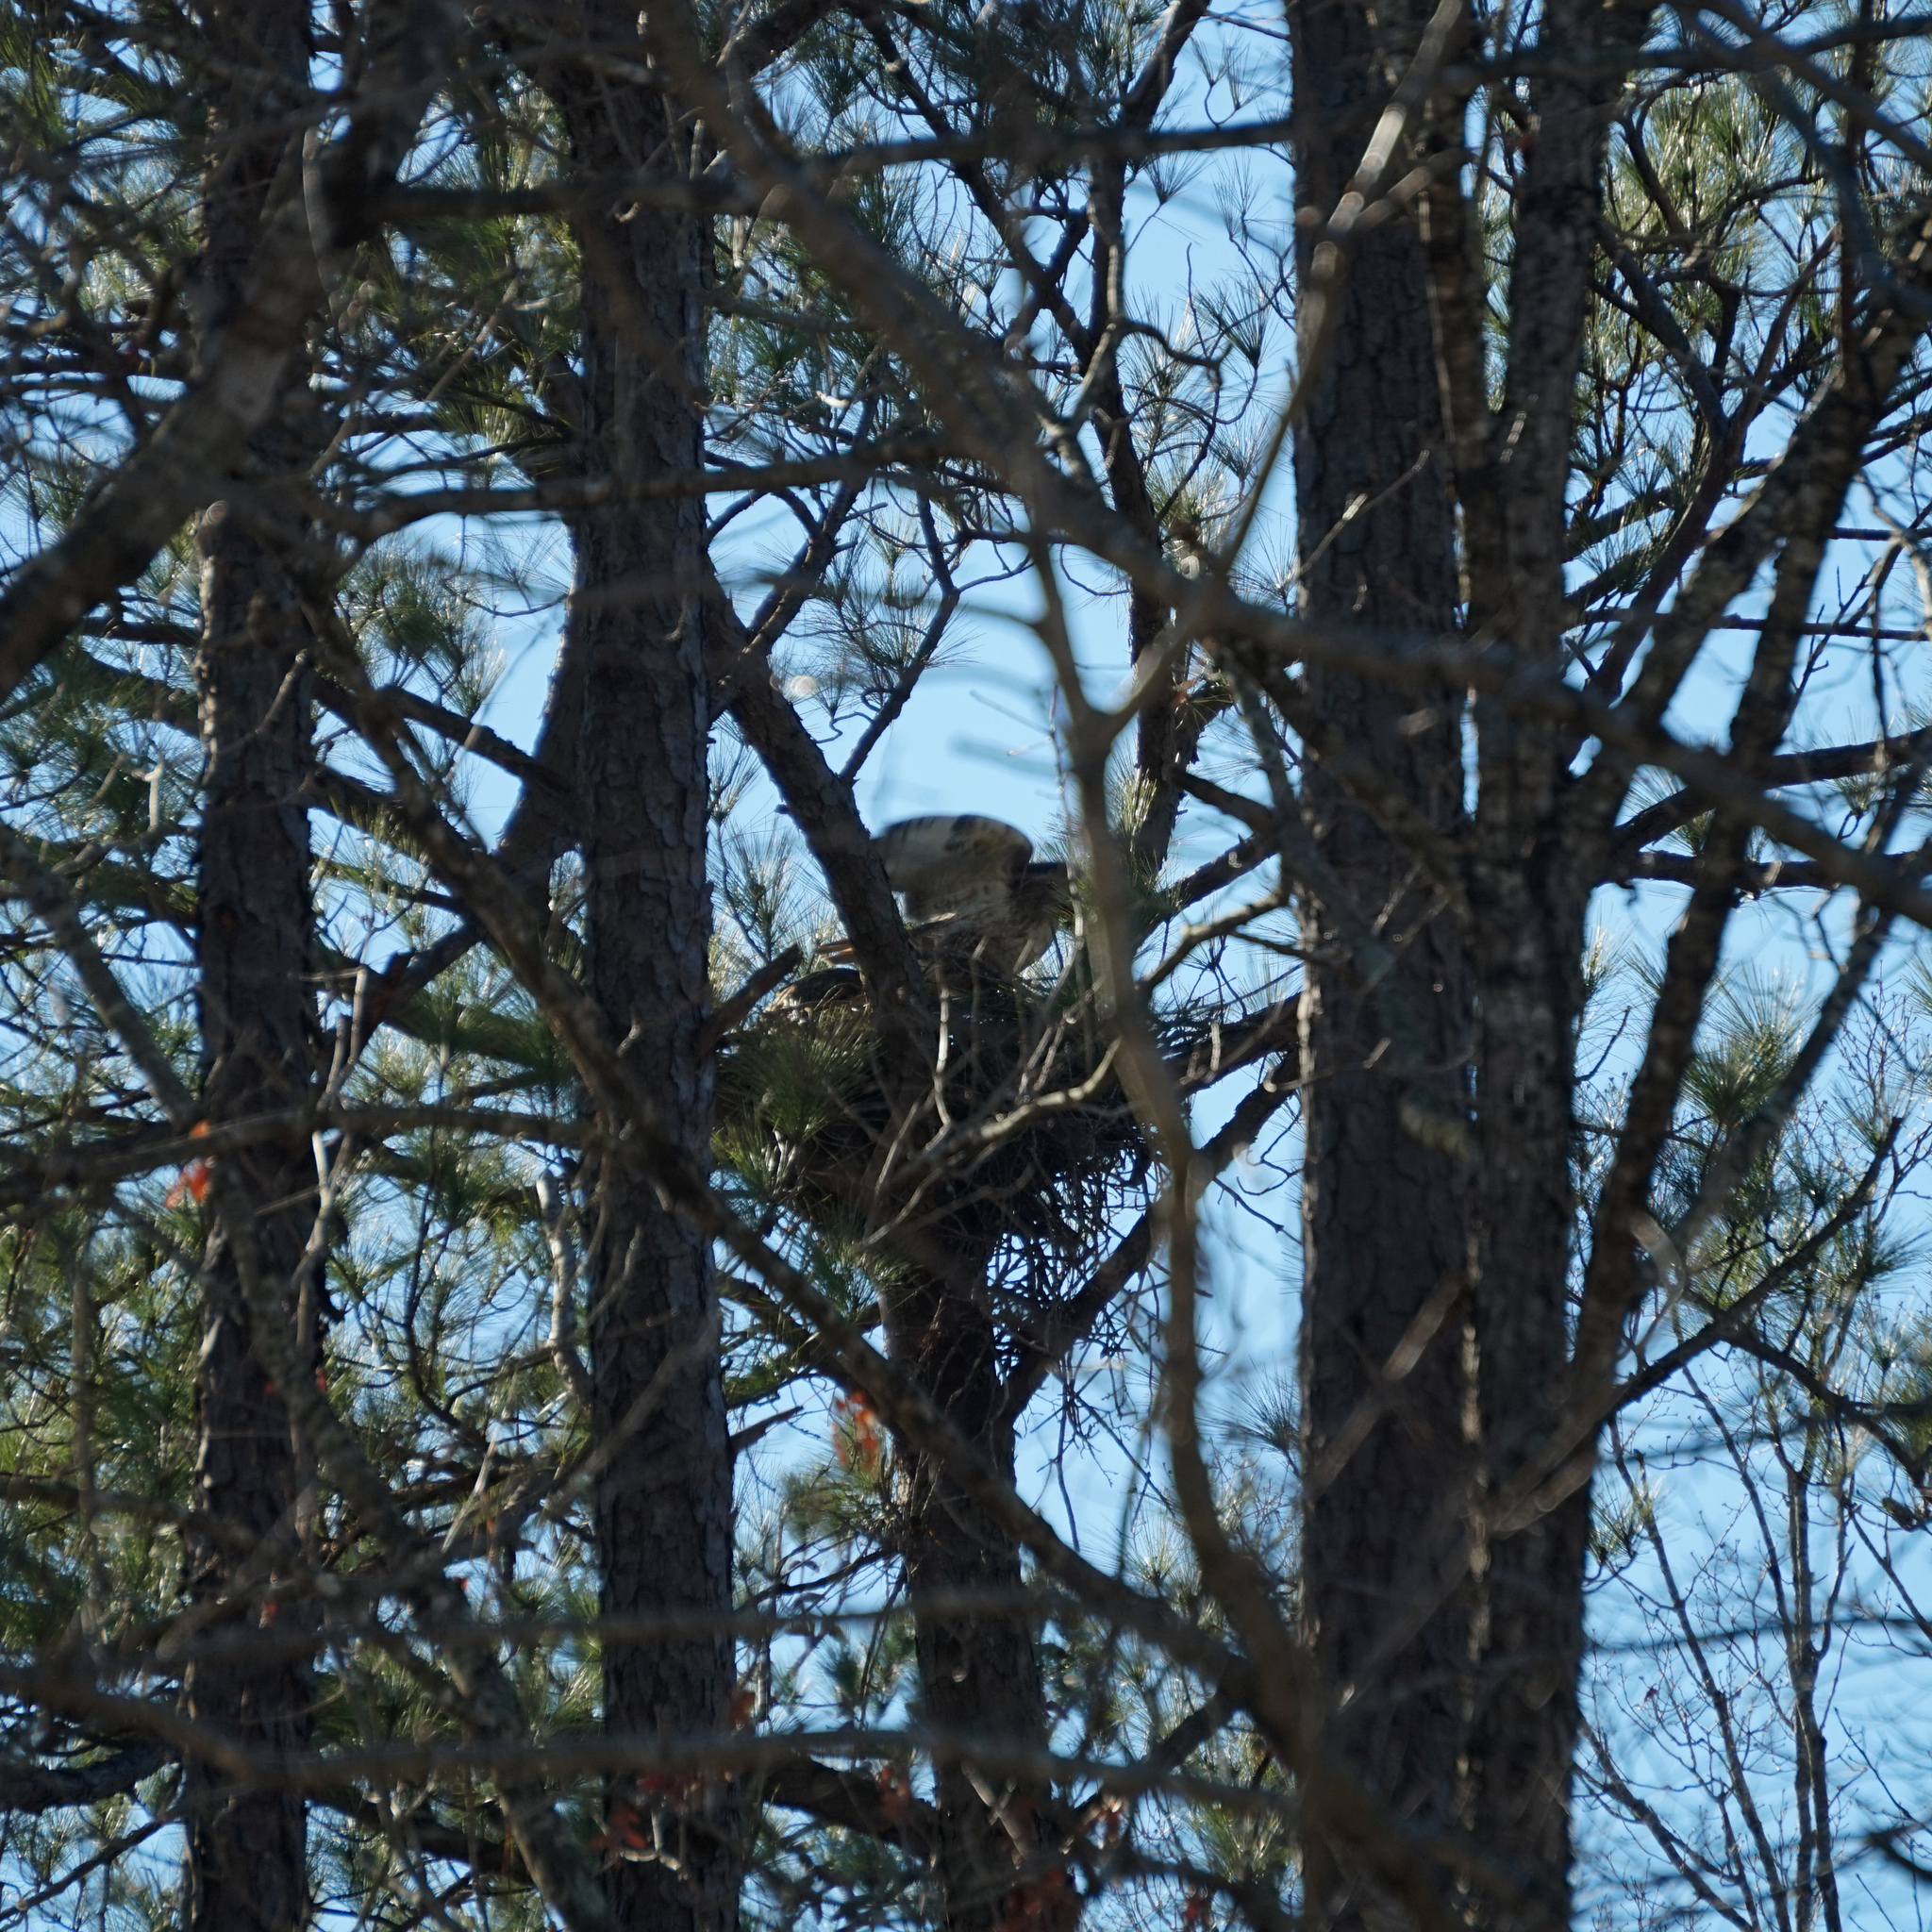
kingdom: Animalia
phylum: Chordata
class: Aves
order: Accipitriformes
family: Accipitridae
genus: Buteo
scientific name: Buteo jamaicensis
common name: Red-tailed hawk
